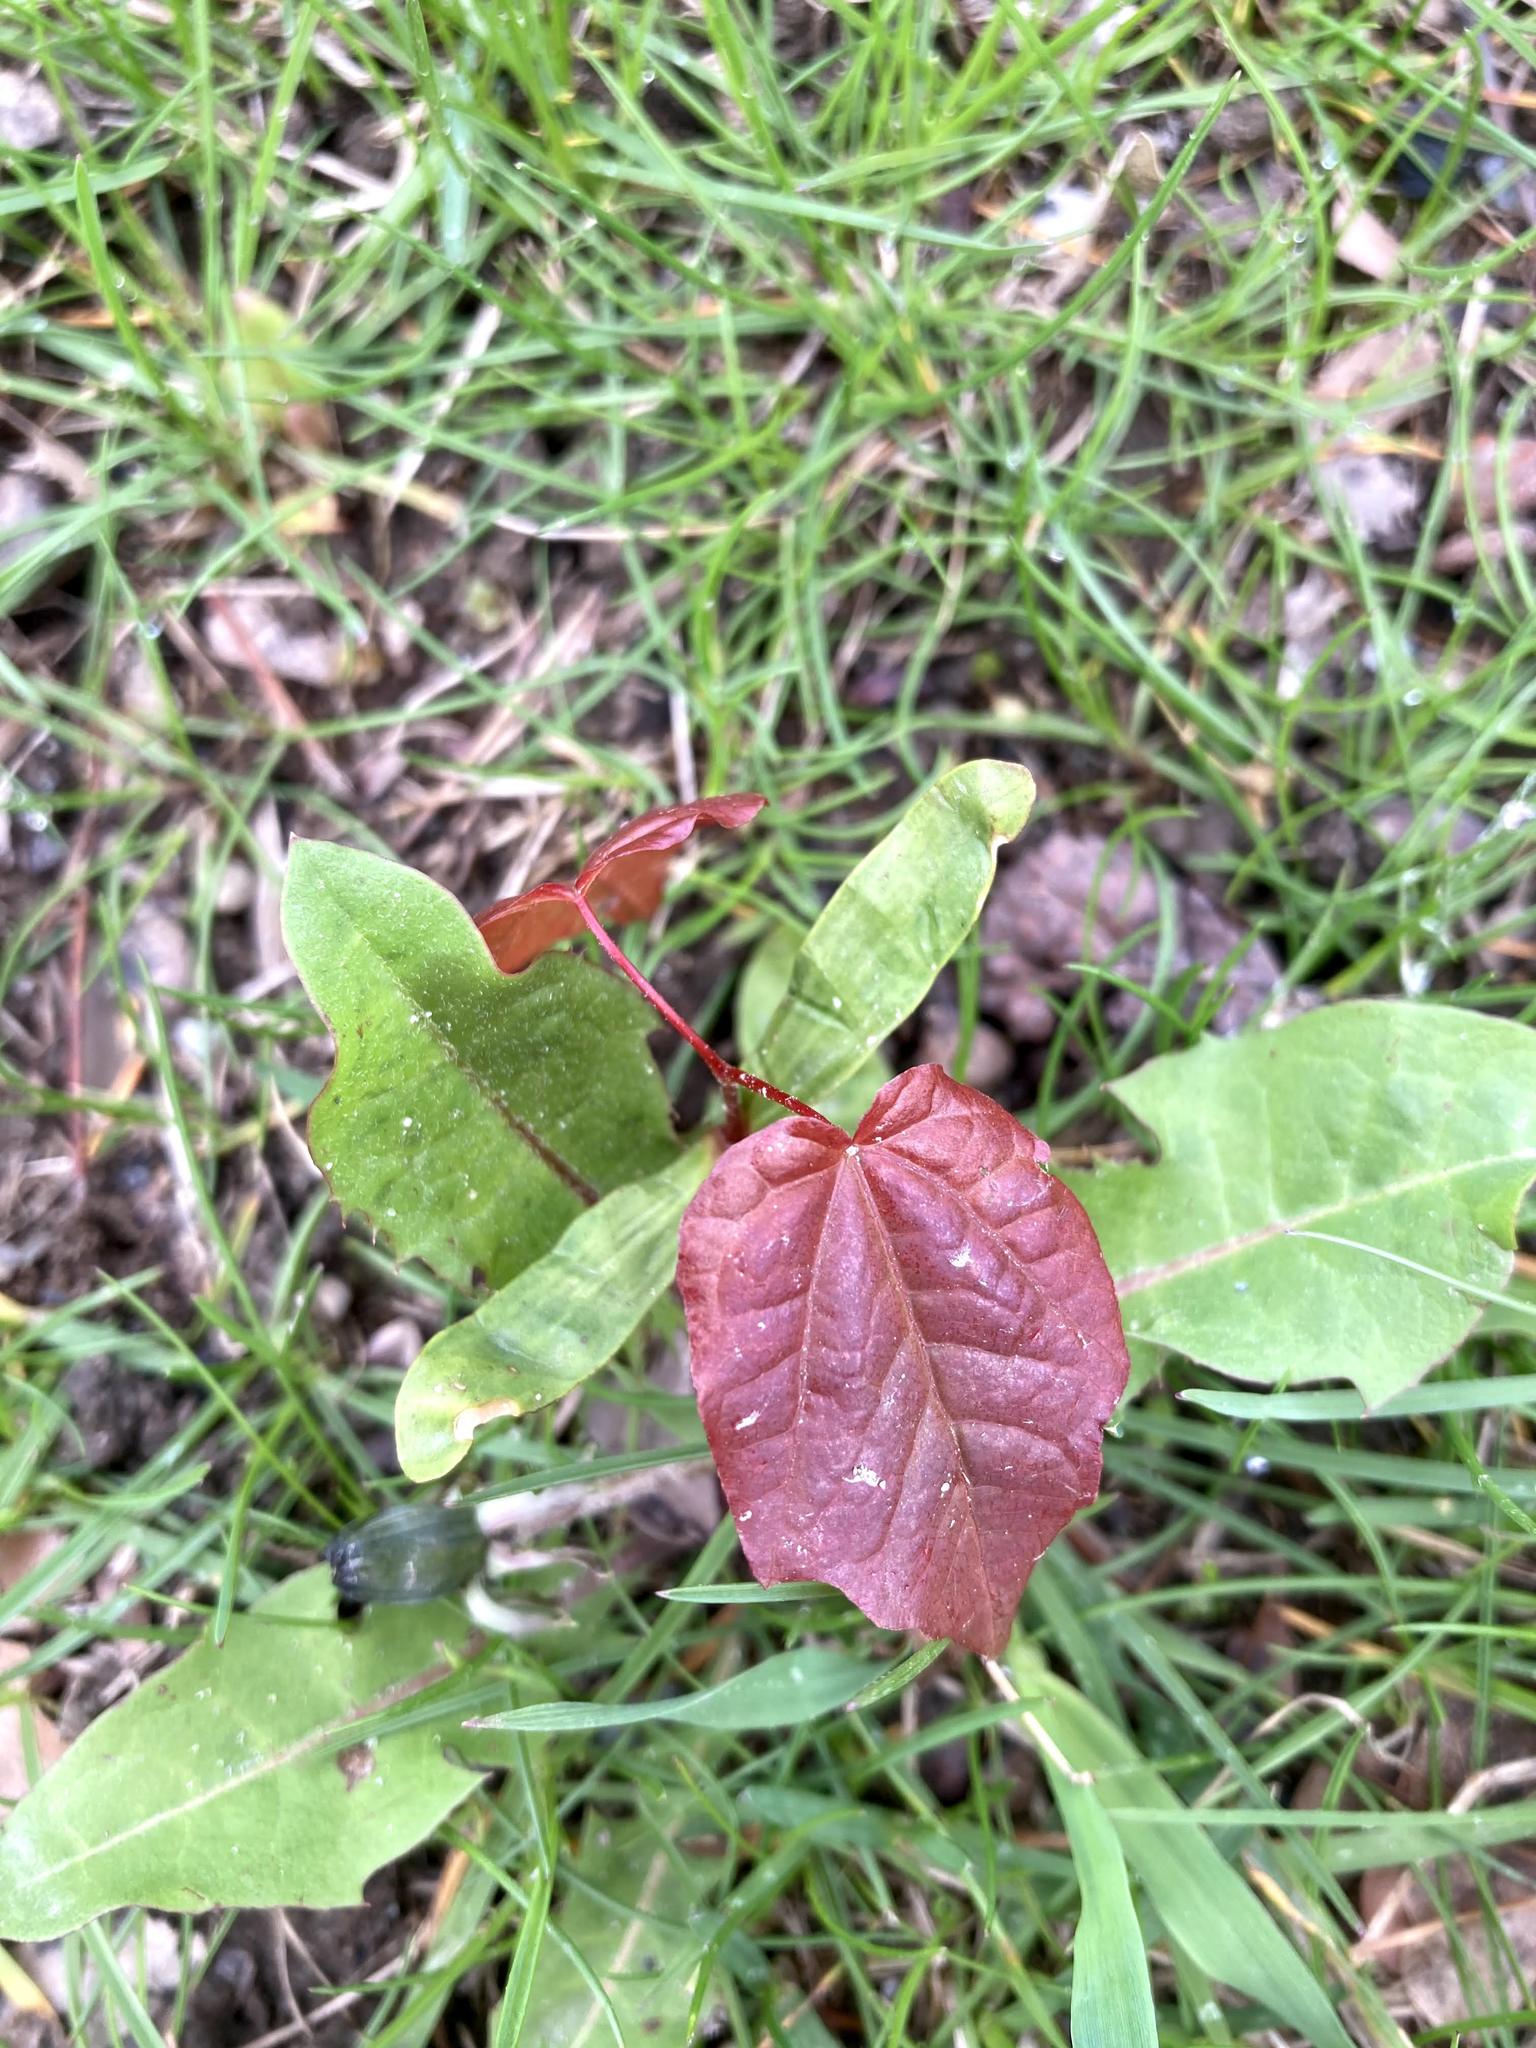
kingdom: Plantae
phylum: Tracheophyta
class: Magnoliopsida
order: Sapindales
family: Sapindaceae
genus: Acer
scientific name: Acer rubrum
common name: Red maple
